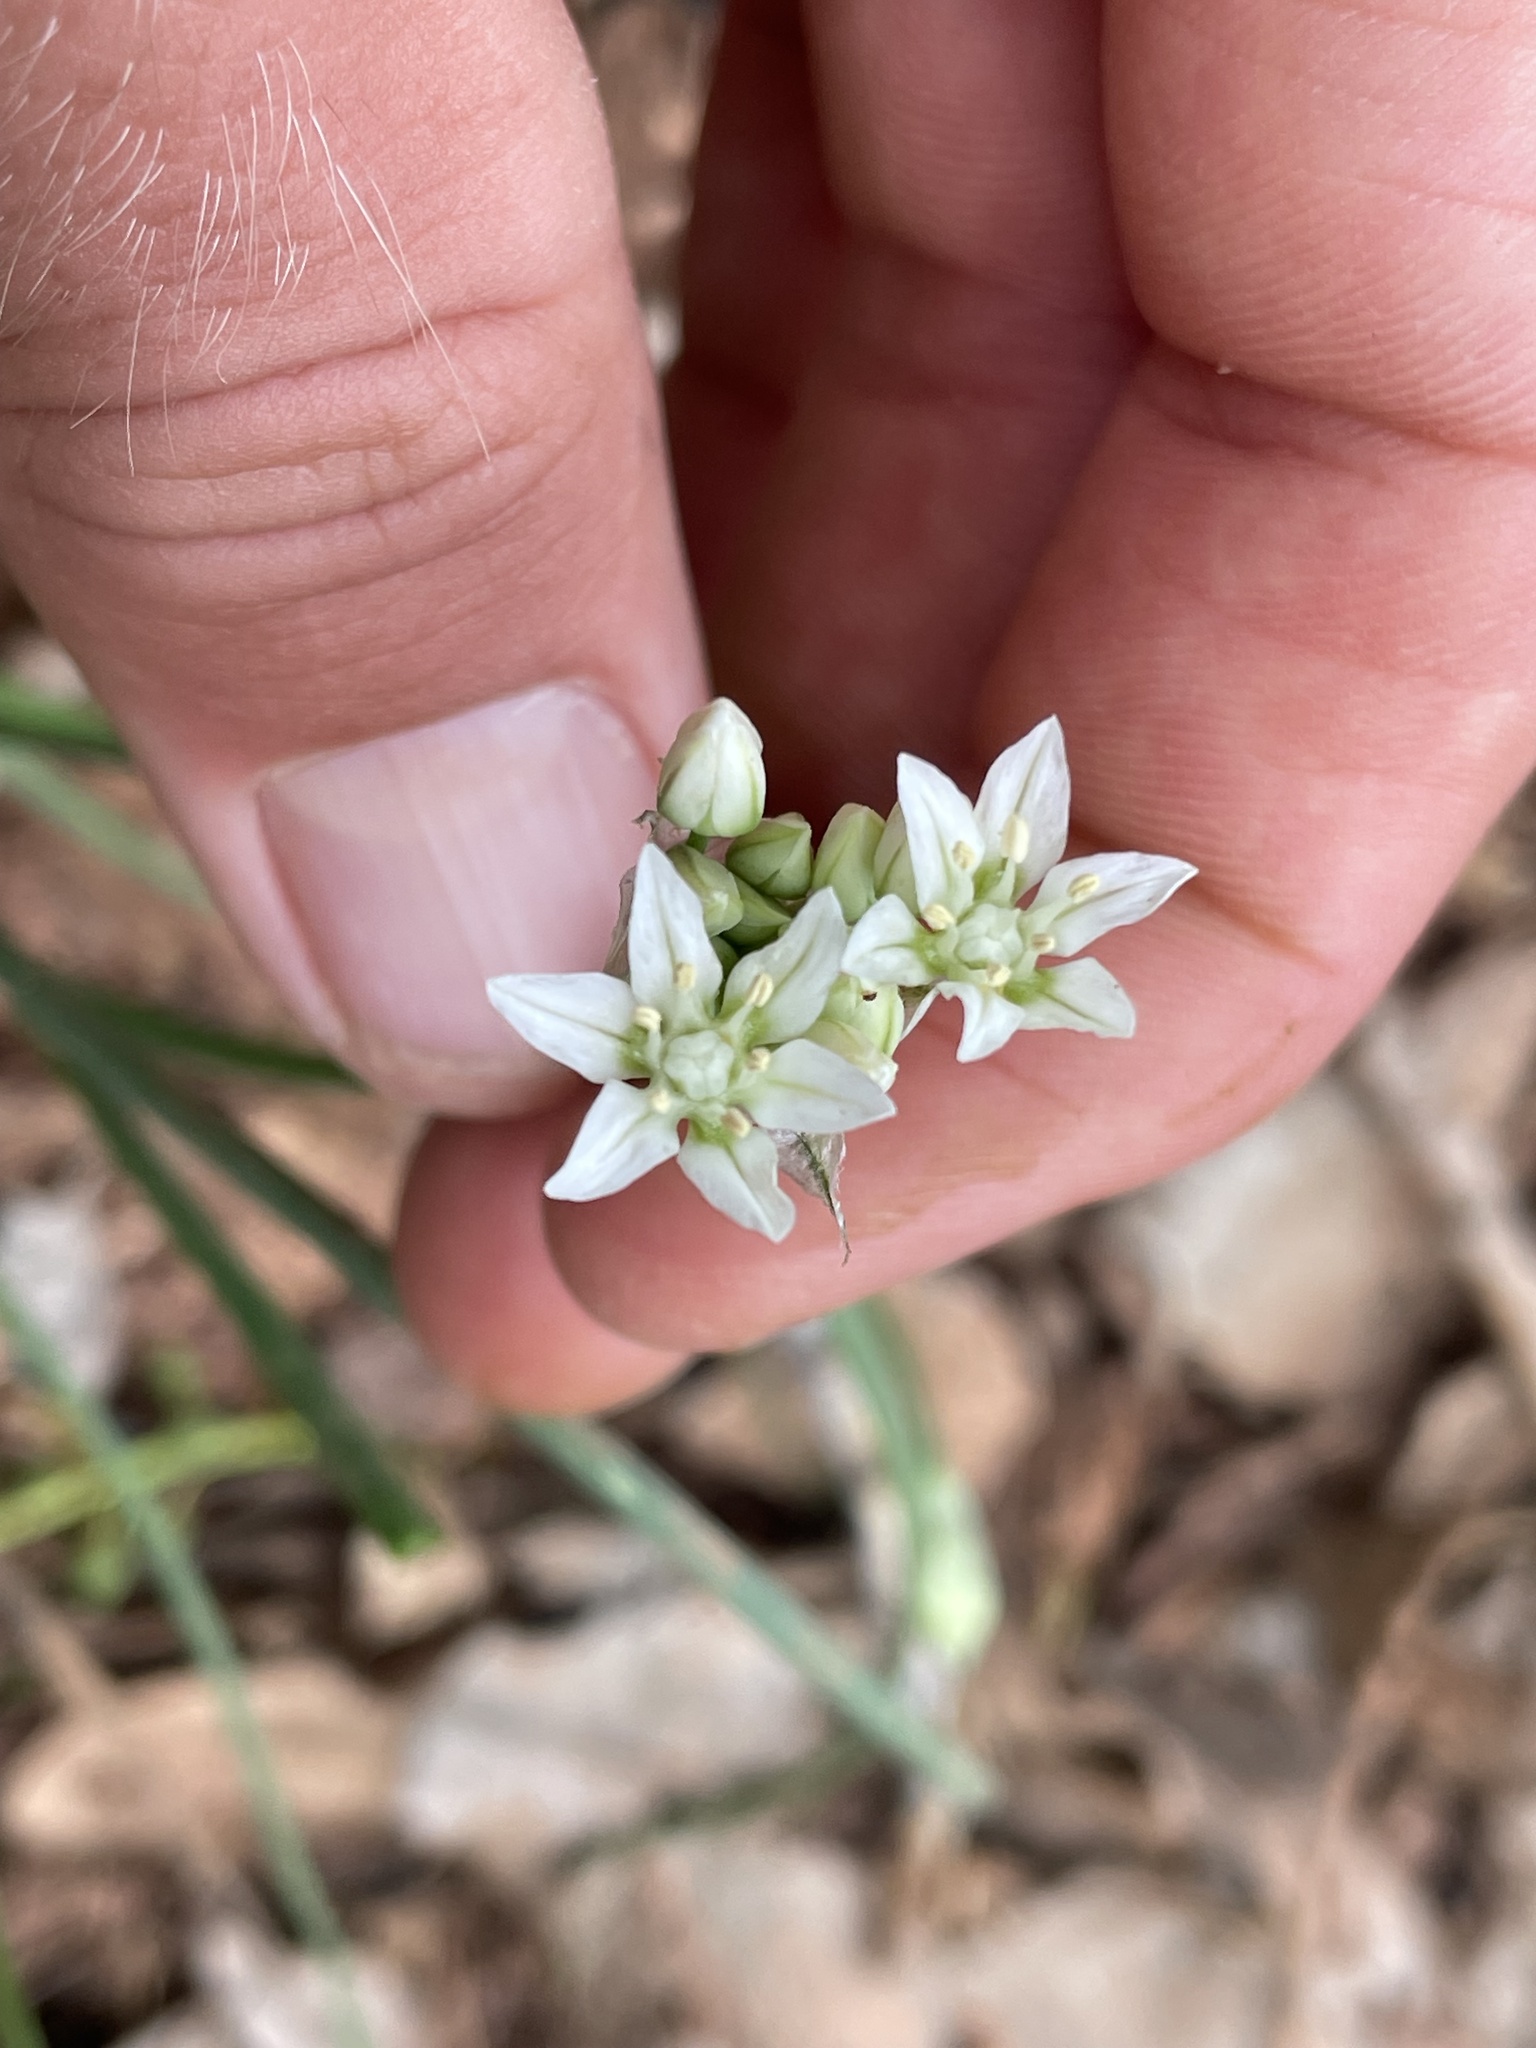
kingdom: Plantae
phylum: Tracheophyta
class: Liliopsida
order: Asparagales
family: Amaryllidaceae
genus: Allium
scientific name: Allium drummondii
